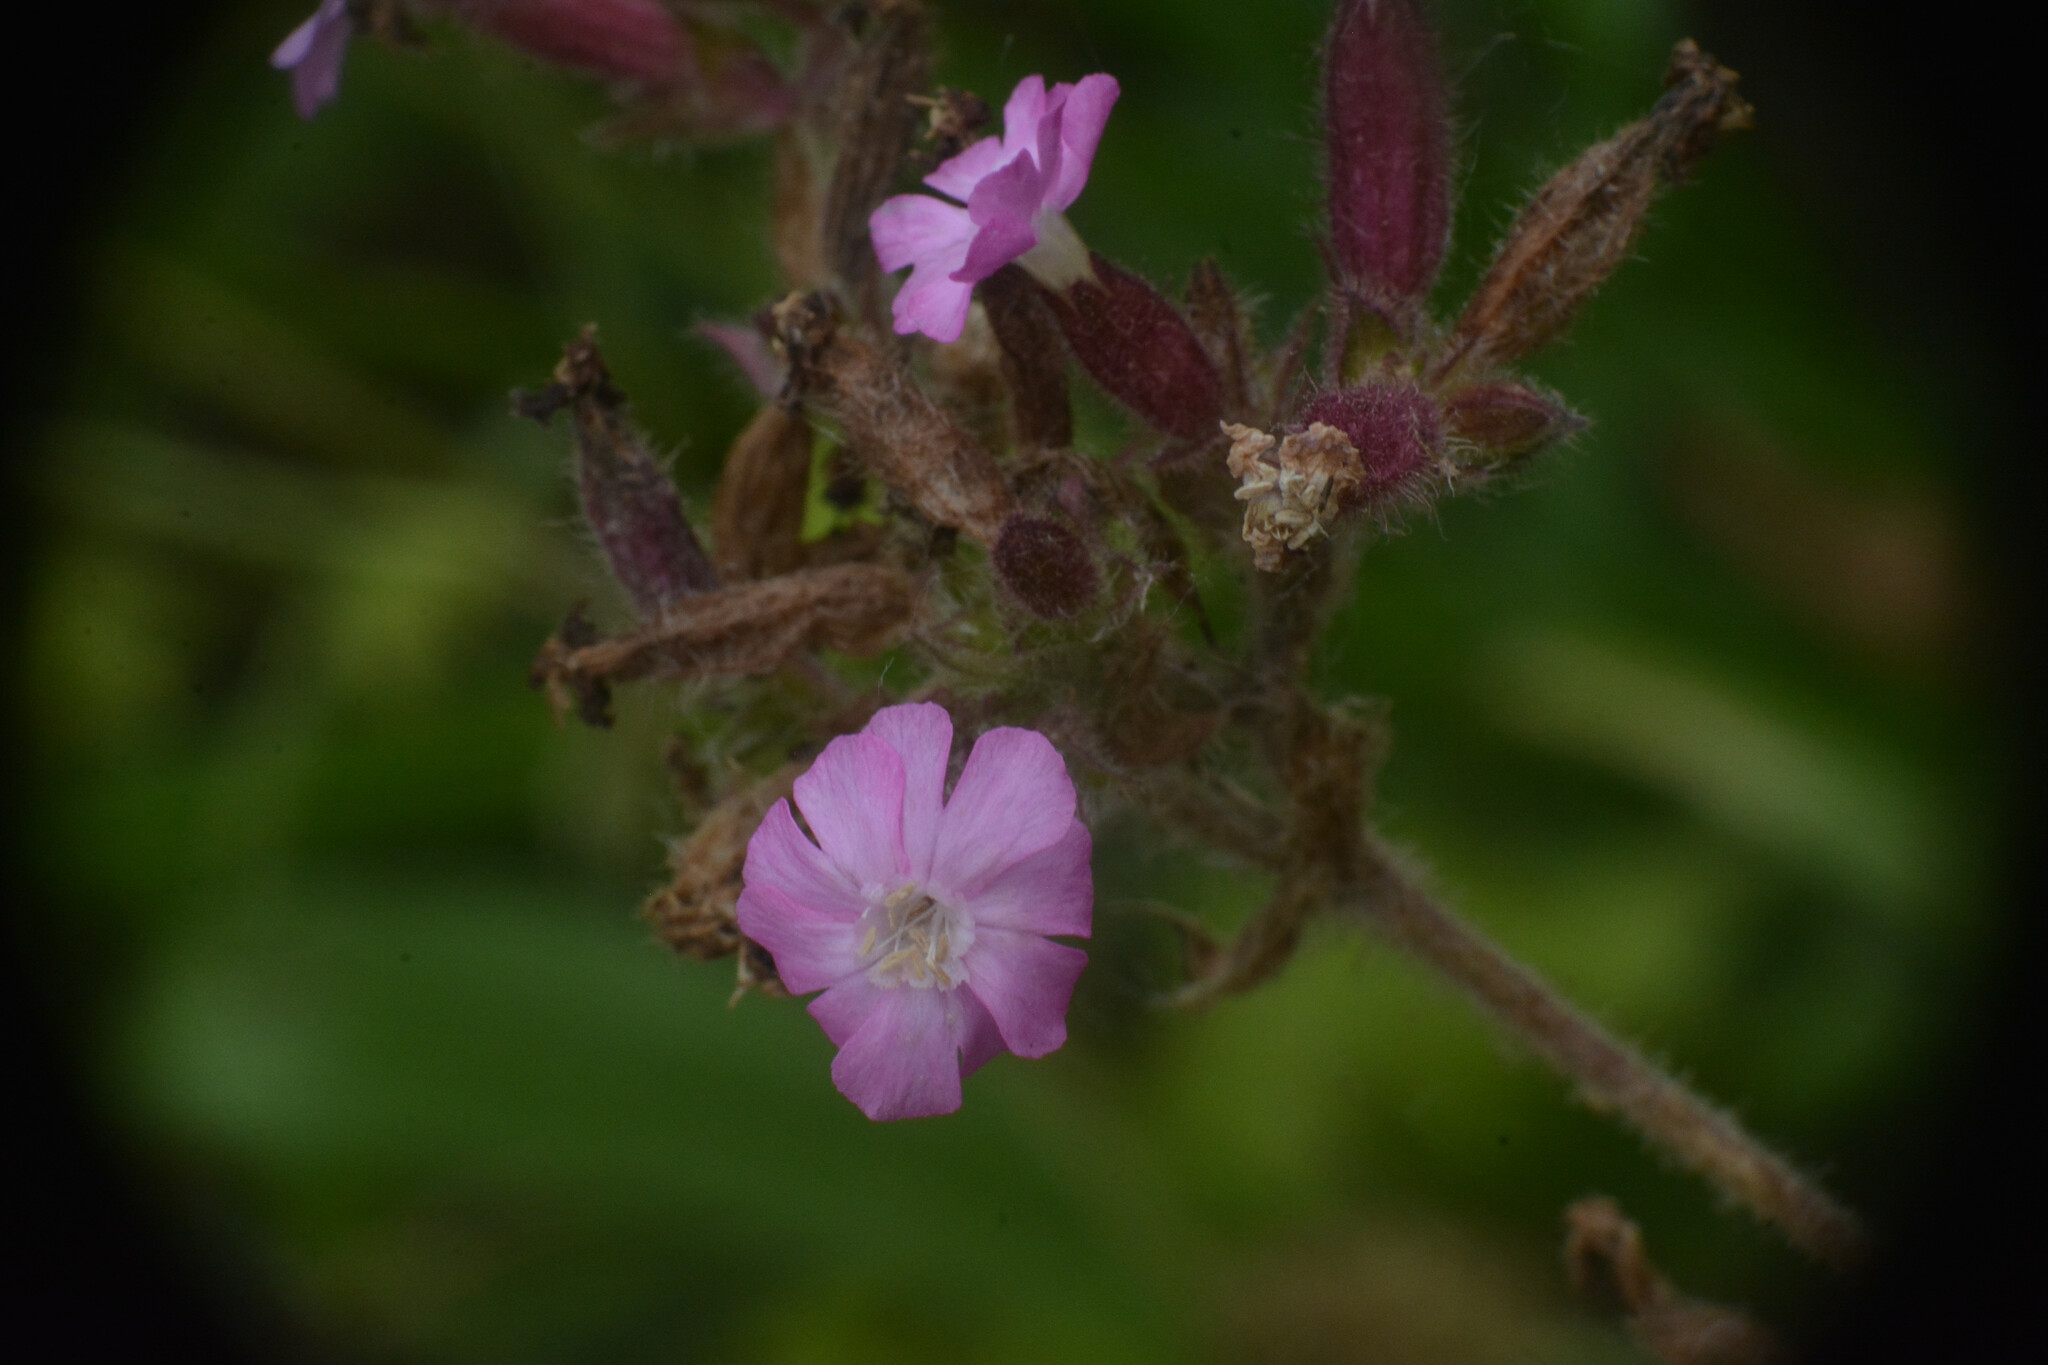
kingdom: Plantae
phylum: Tracheophyta
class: Magnoliopsida
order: Caryophyllales
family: Caryophyllaceae
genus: Silene
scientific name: Silene dioica
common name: Red campion
